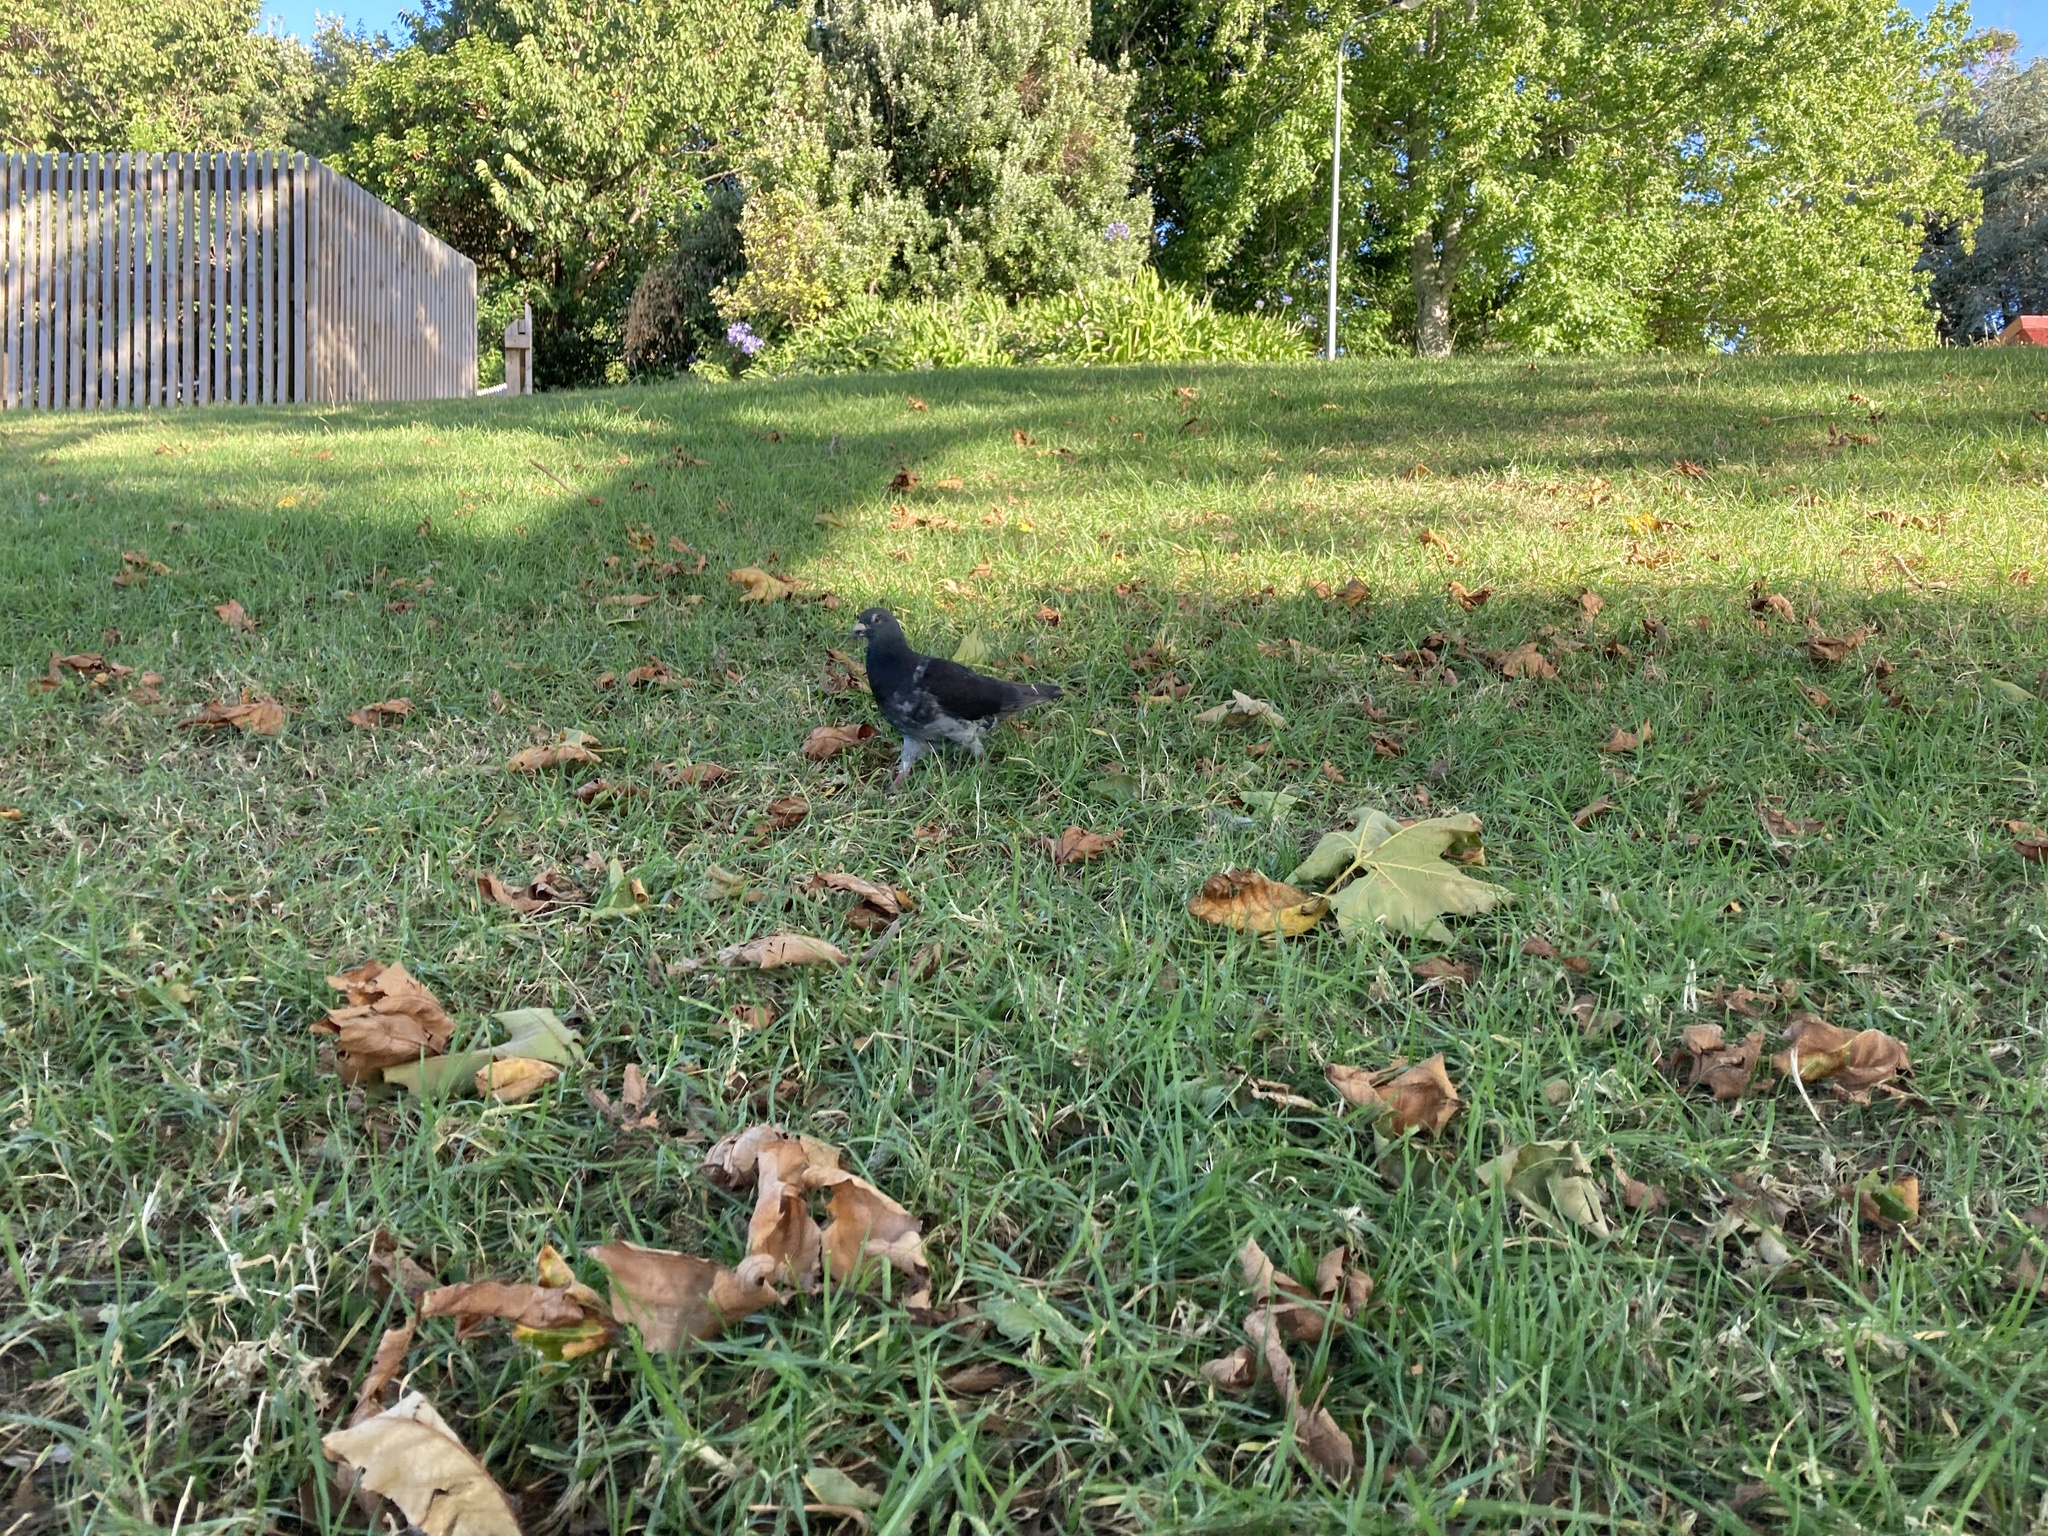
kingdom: Animalia
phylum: Chordata
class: Aves
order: Columbiformes
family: Columbidae
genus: Columba
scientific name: Columba livia
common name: Rock pigeon
